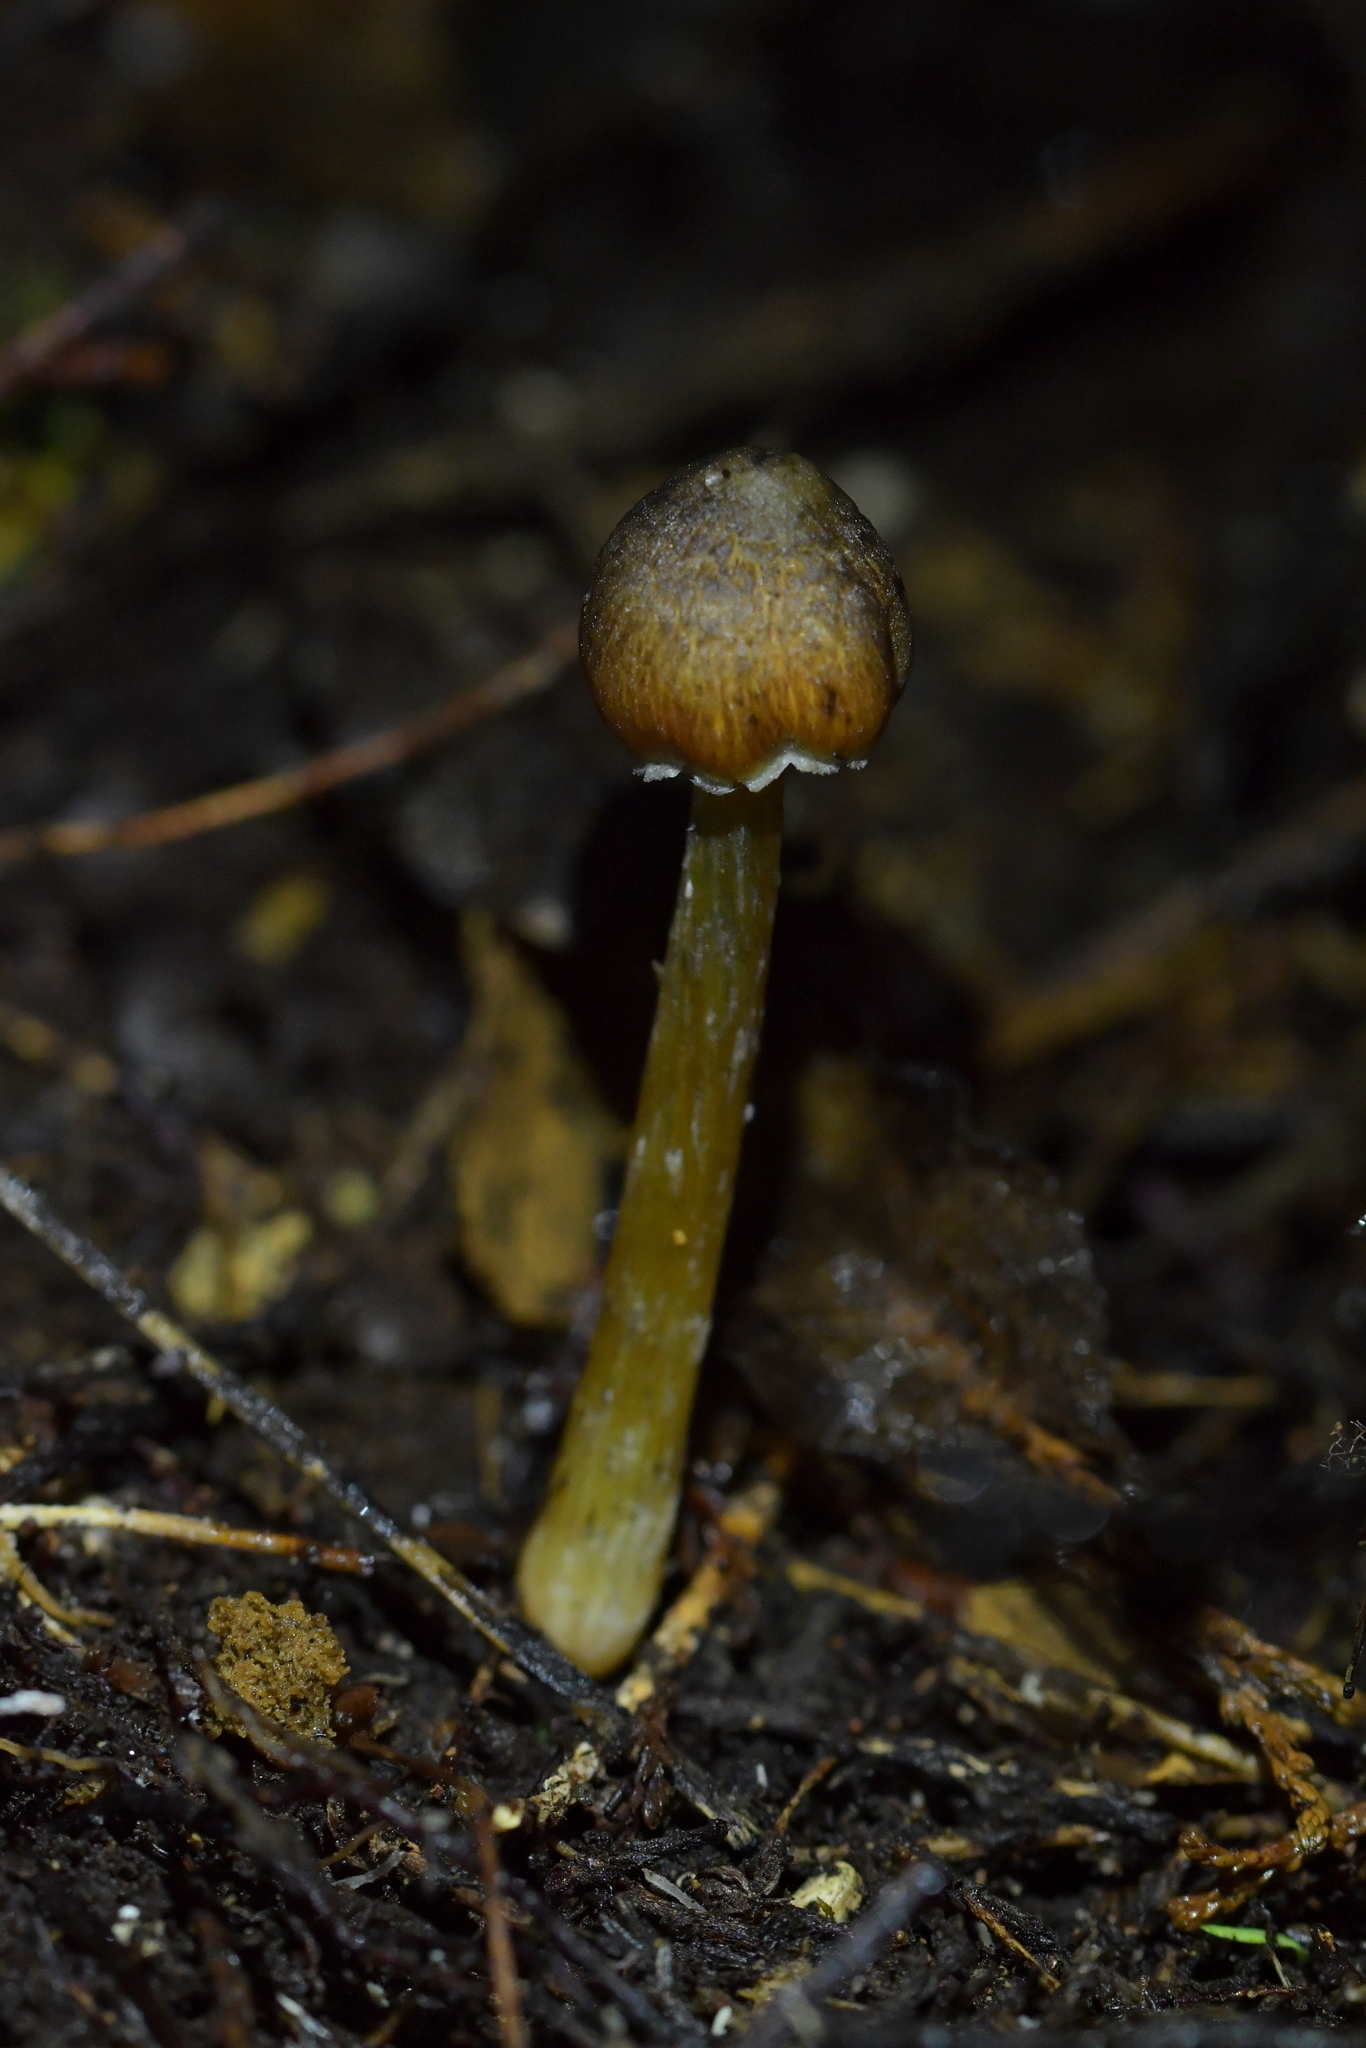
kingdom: Fungi
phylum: Basidiomycota
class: Agaricomycetes
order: Agaricales
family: Hygrophoraceae
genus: Hygrocybe
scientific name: Hygrocybe astatogala
